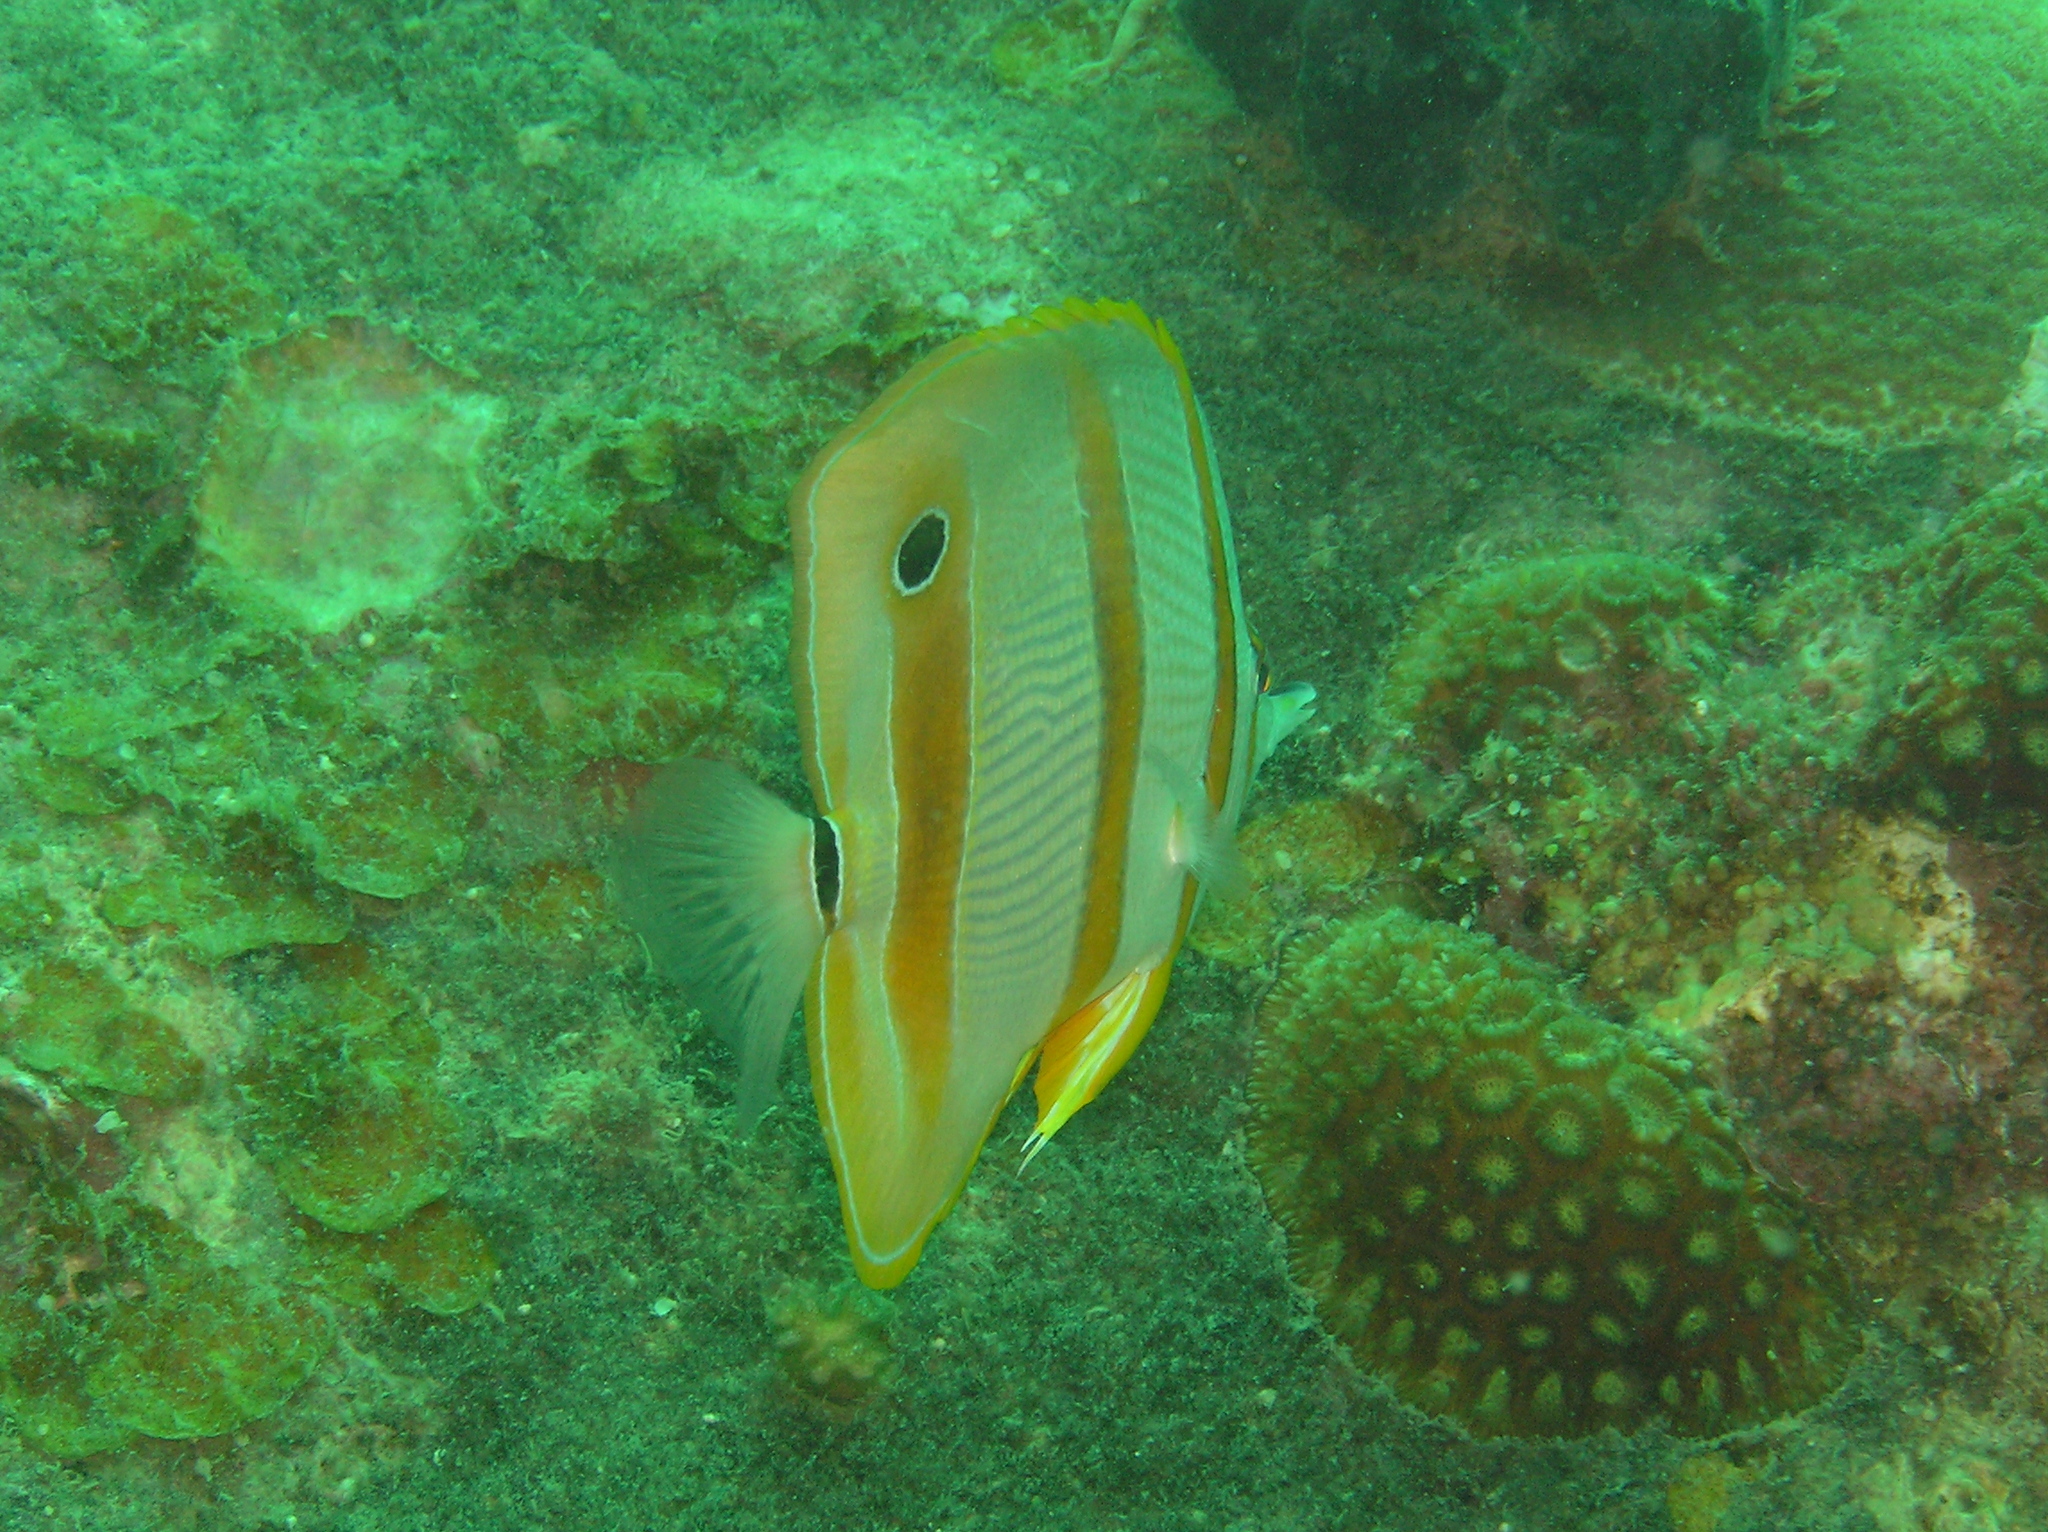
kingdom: Animalia
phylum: Chordata
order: Perciformes
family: Chaetodontidae
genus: Chelmon
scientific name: Chelmon rostratus
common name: Beaked butterflyfish
